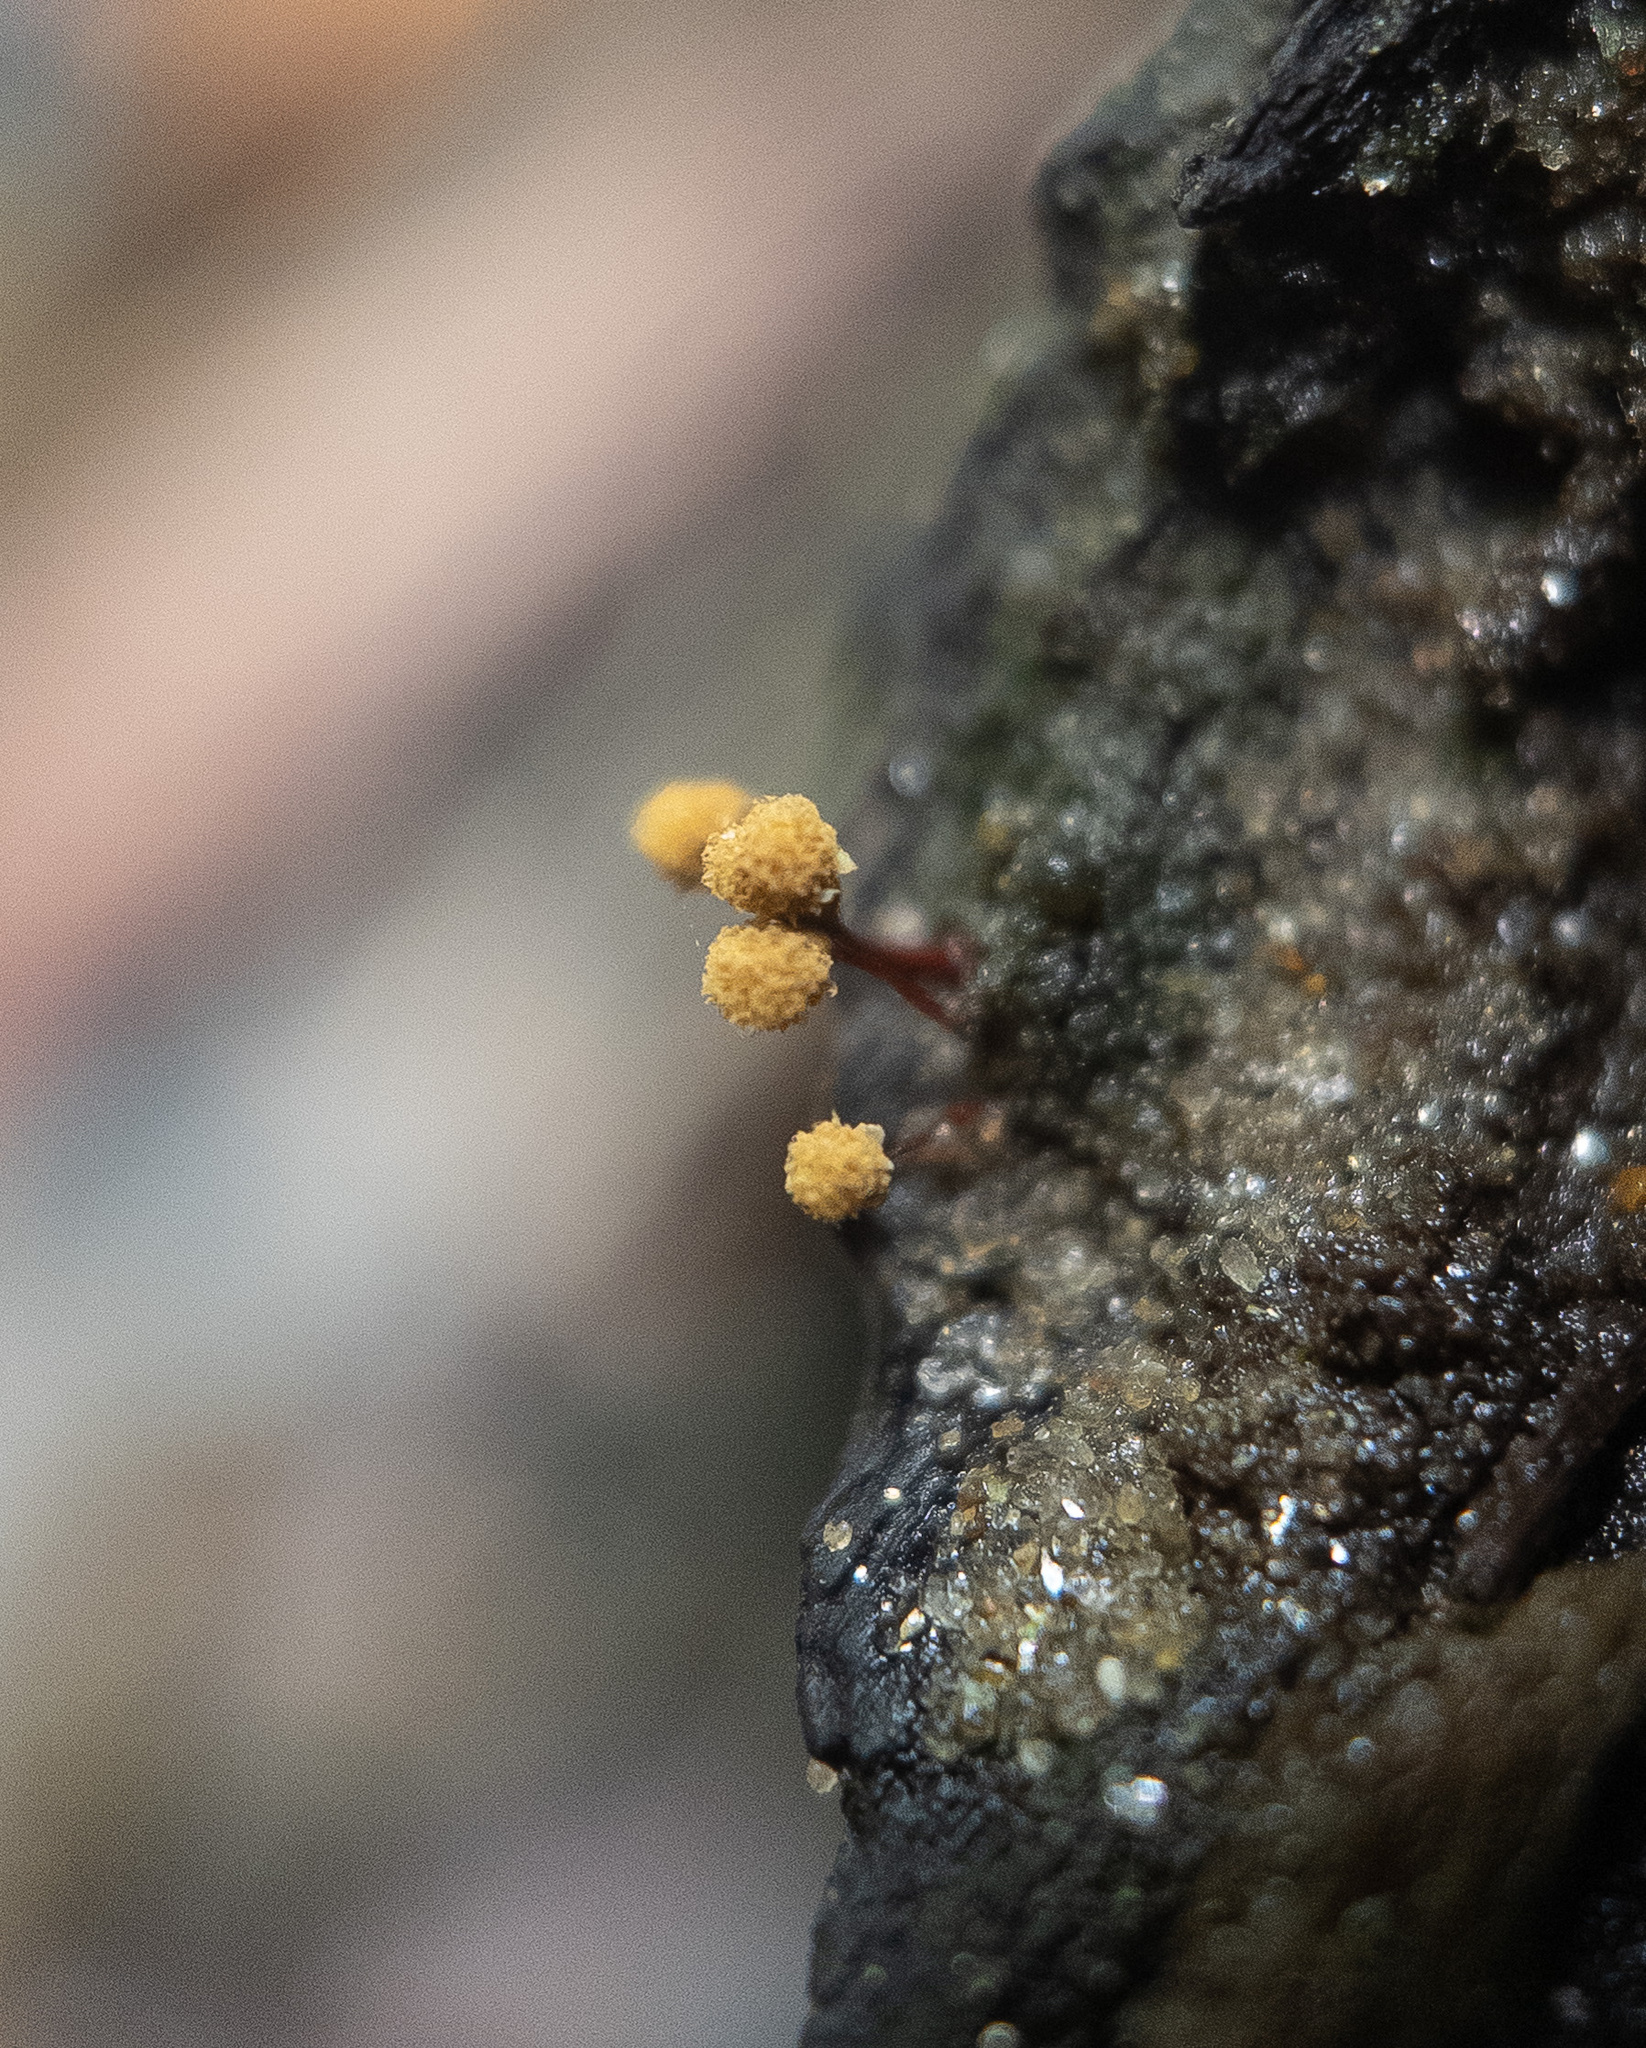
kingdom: Protozoa
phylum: Mycetozoa
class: Myxomycetes
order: Trichiales
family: Arcyriaceae
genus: Hemitrichia
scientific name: Hemitrichia calyculata
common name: Push pin slime mold
